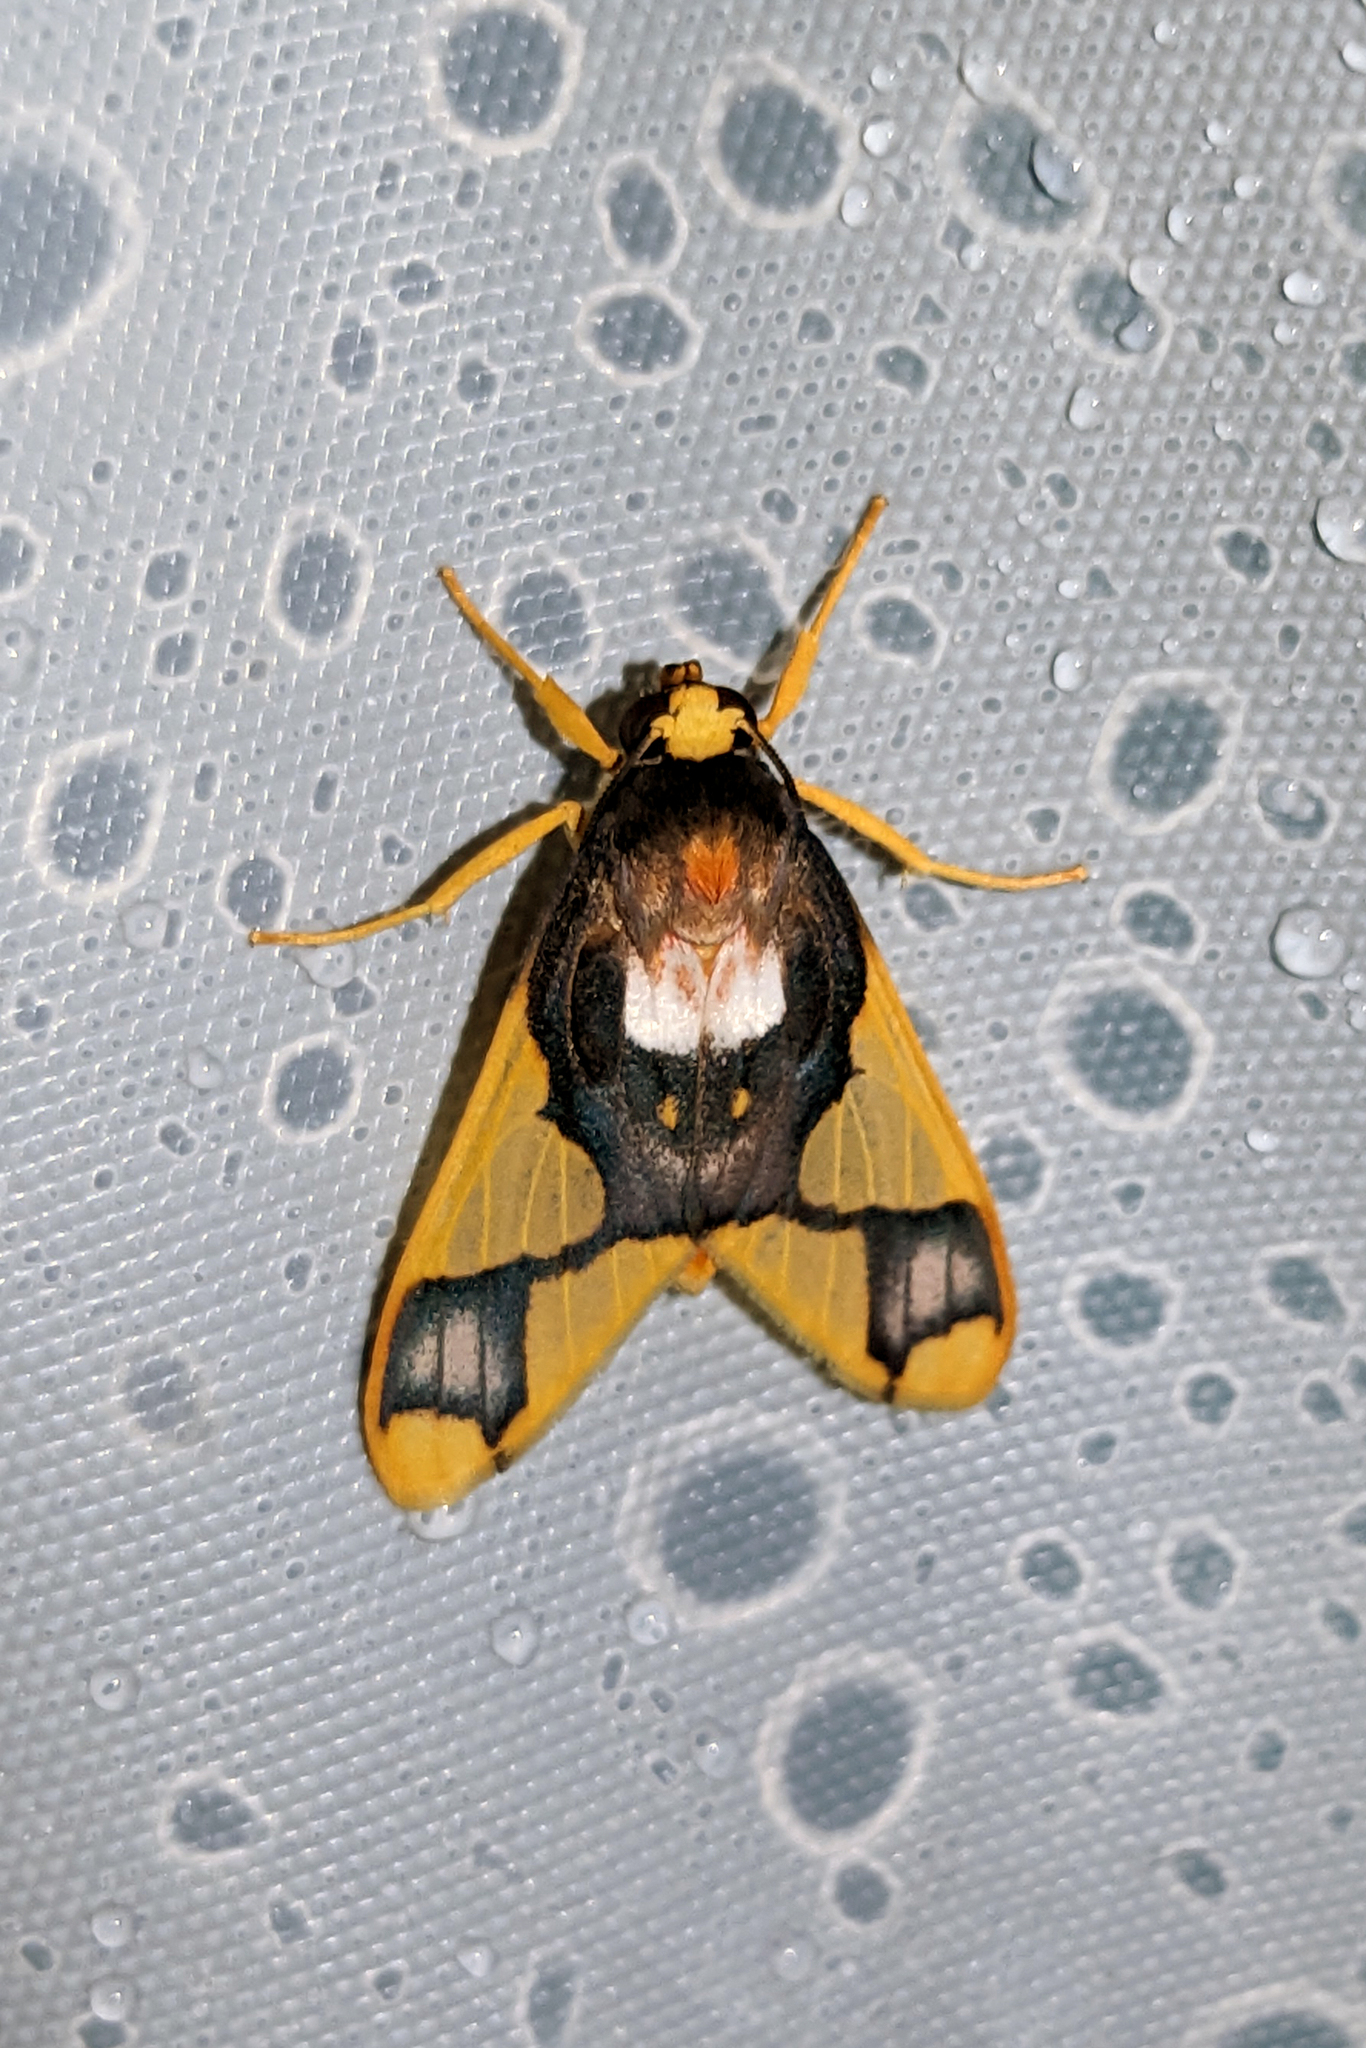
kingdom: Animalia
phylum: Arthropoda
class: Insecta
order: Lepidoptera
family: Erebidae
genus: Paranerita
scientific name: Paranerita patara
